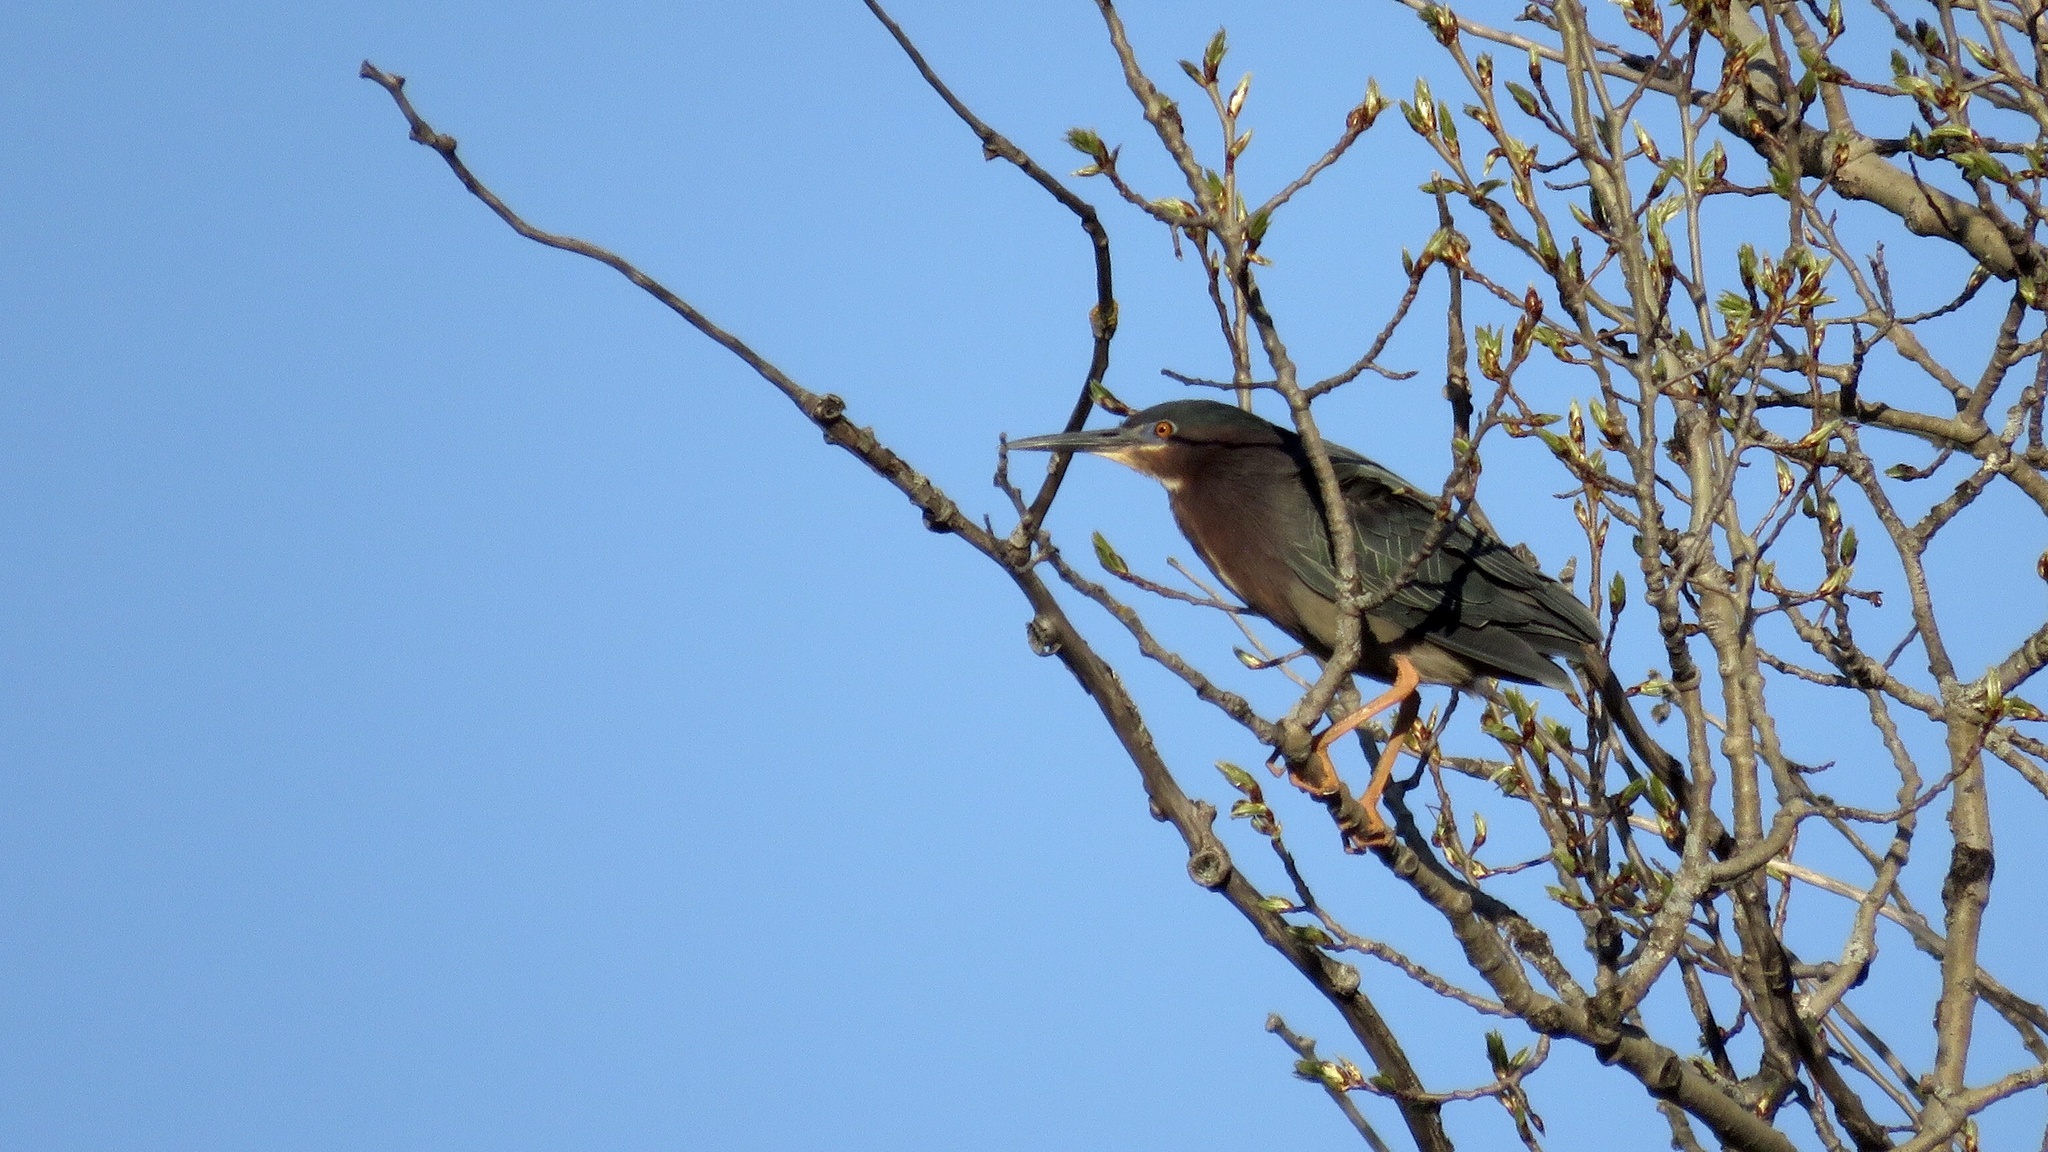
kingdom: Animalia
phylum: Chordata
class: Aves
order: Pelecaniformes
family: Ardeidae
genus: Butorides
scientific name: Butorides virescens
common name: Green heron
